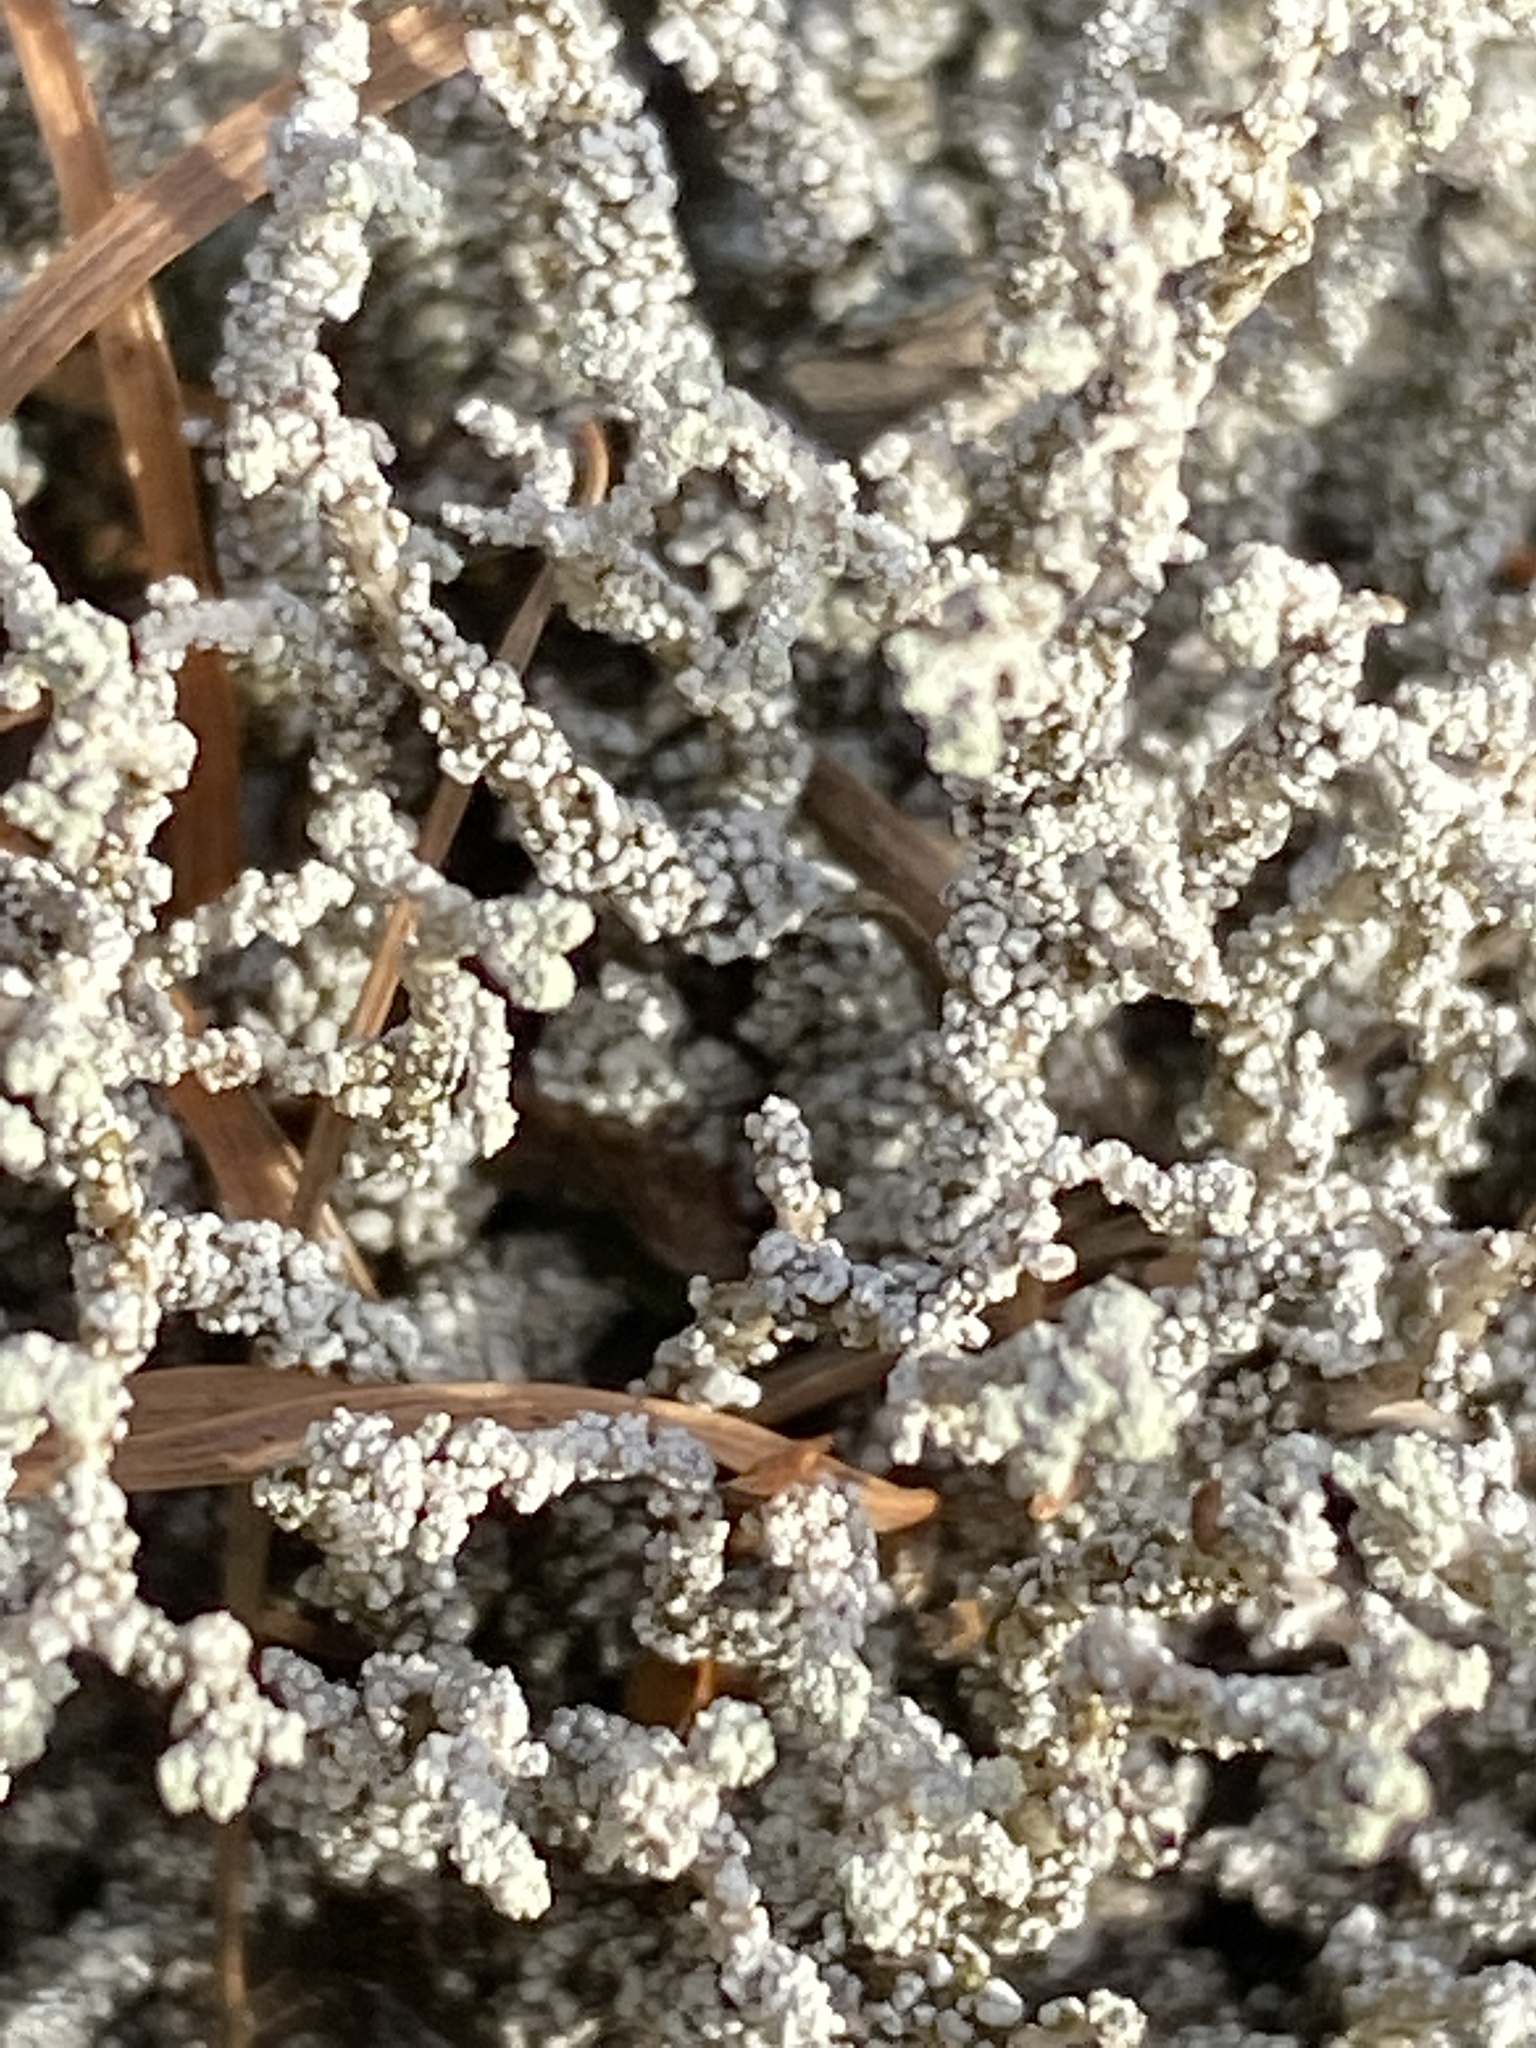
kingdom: Fungi
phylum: Ascomycota
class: Lecanoromycetes
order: Lecanorales
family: Stereocaulaceae
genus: Stereocaulon
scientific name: Stereocaulon vesuvianum
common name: Variegated foam lichen
